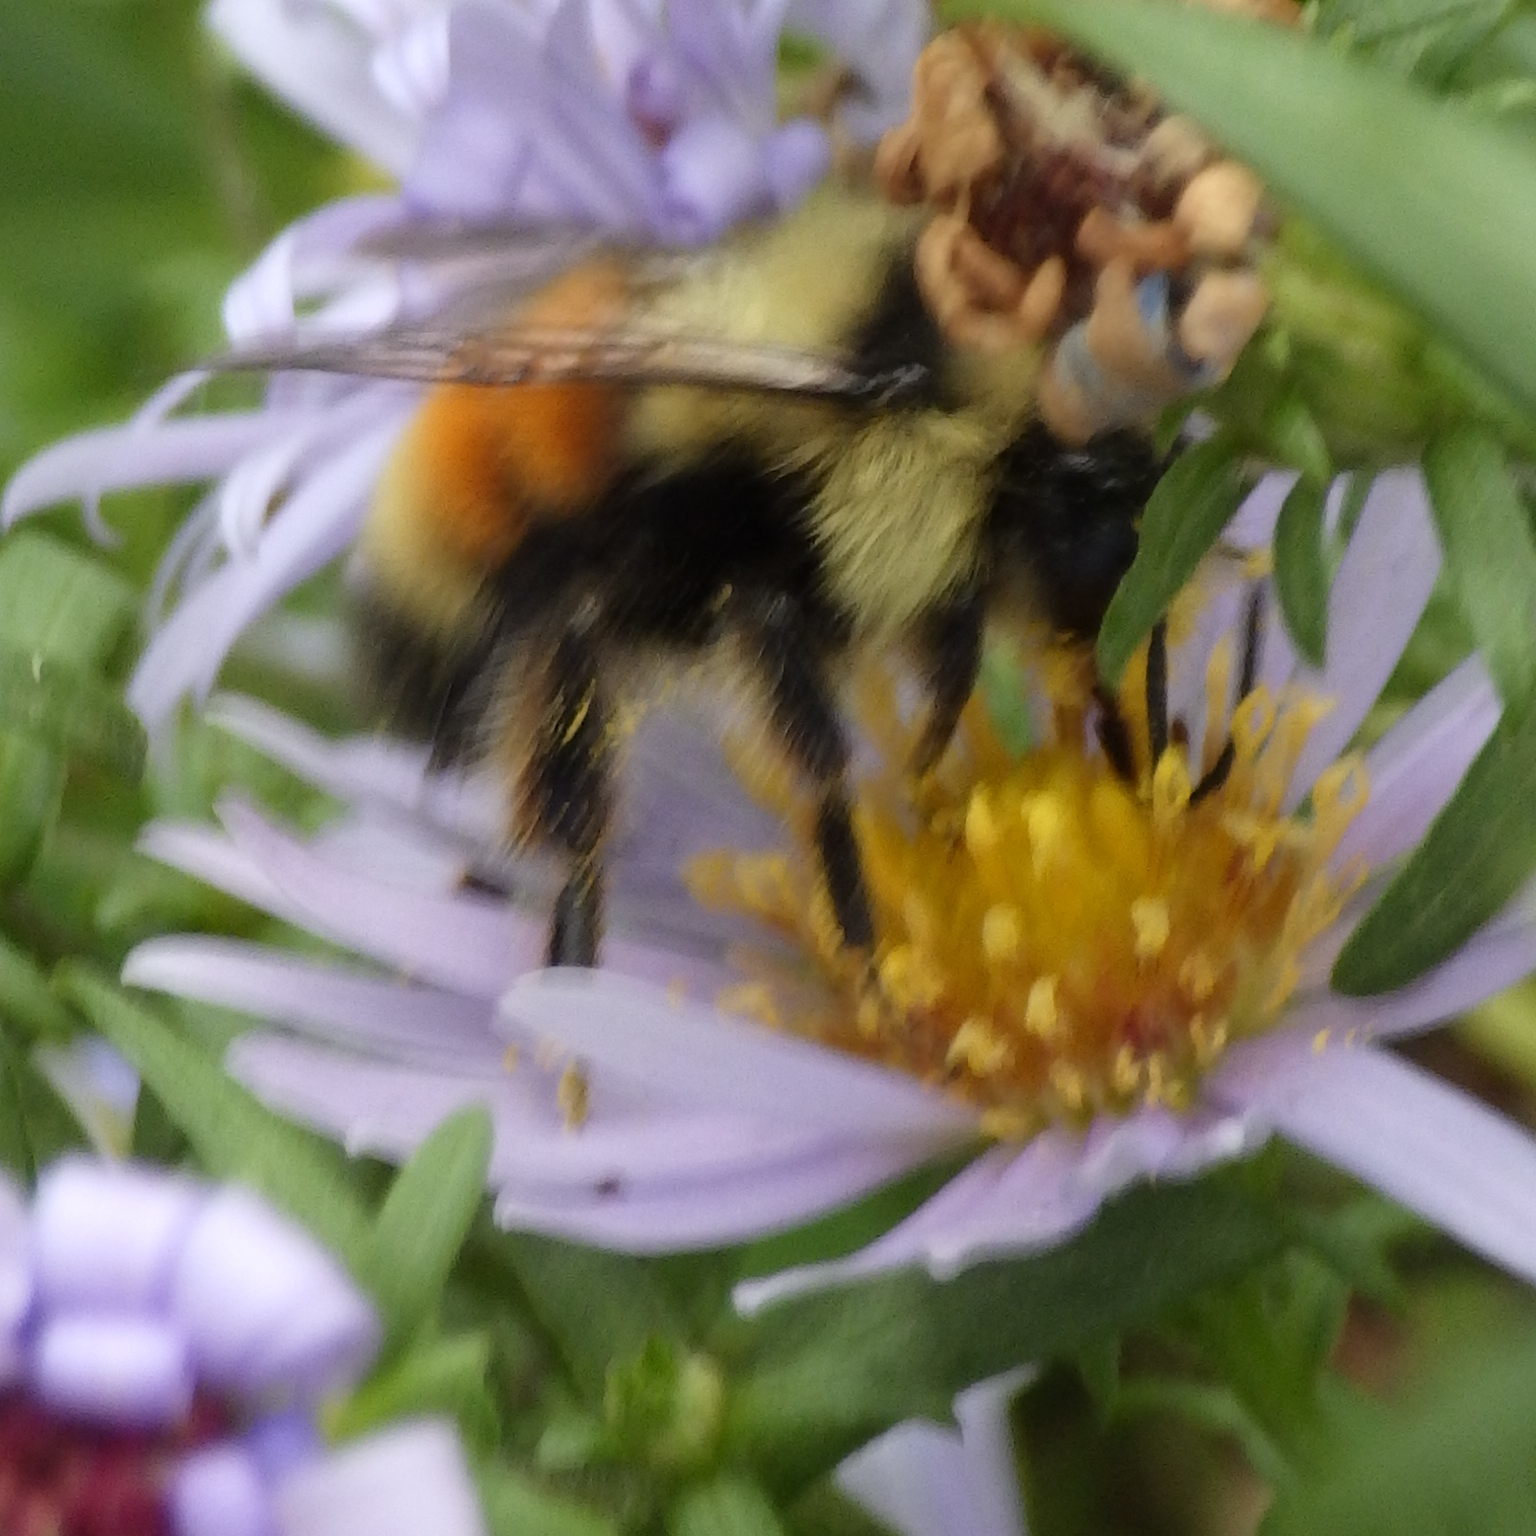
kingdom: Animalia
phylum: Arthropoda
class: Insecta
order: Hymenoptera
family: Apidae
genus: Bombus
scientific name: Bombus ternarius
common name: Tri-colored bumble bee
